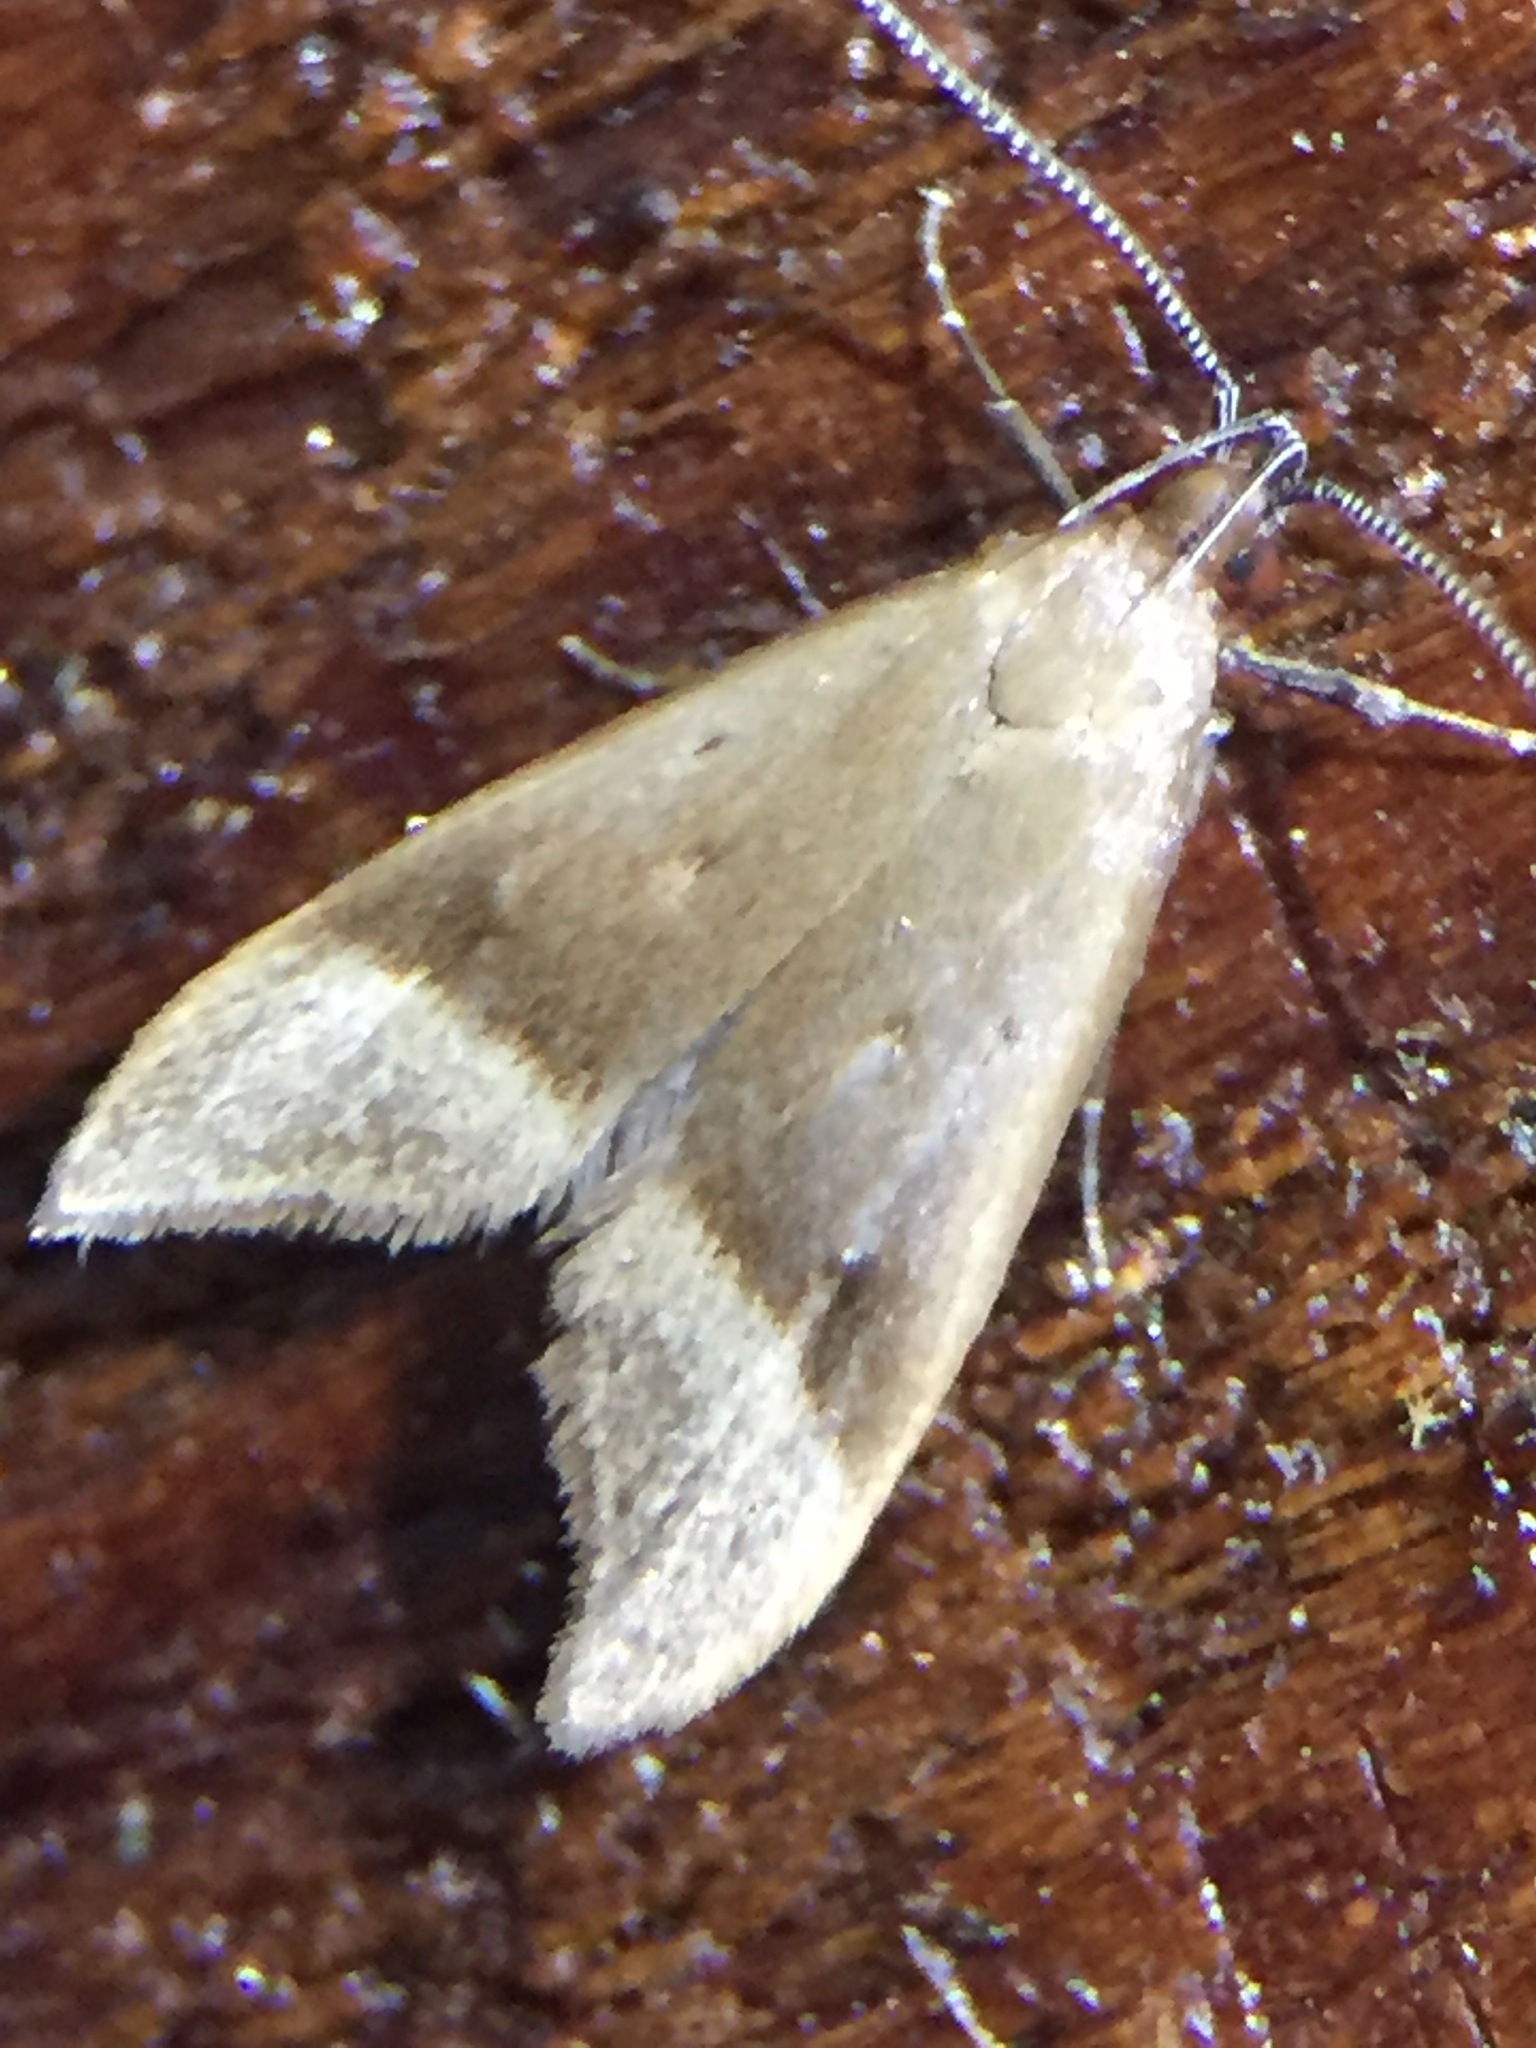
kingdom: Animalia
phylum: Arthropoda
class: Insecta
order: Lepidoptera
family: Oecophoridae
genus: Gymnobathra
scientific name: Gymnobathra hyetodes
